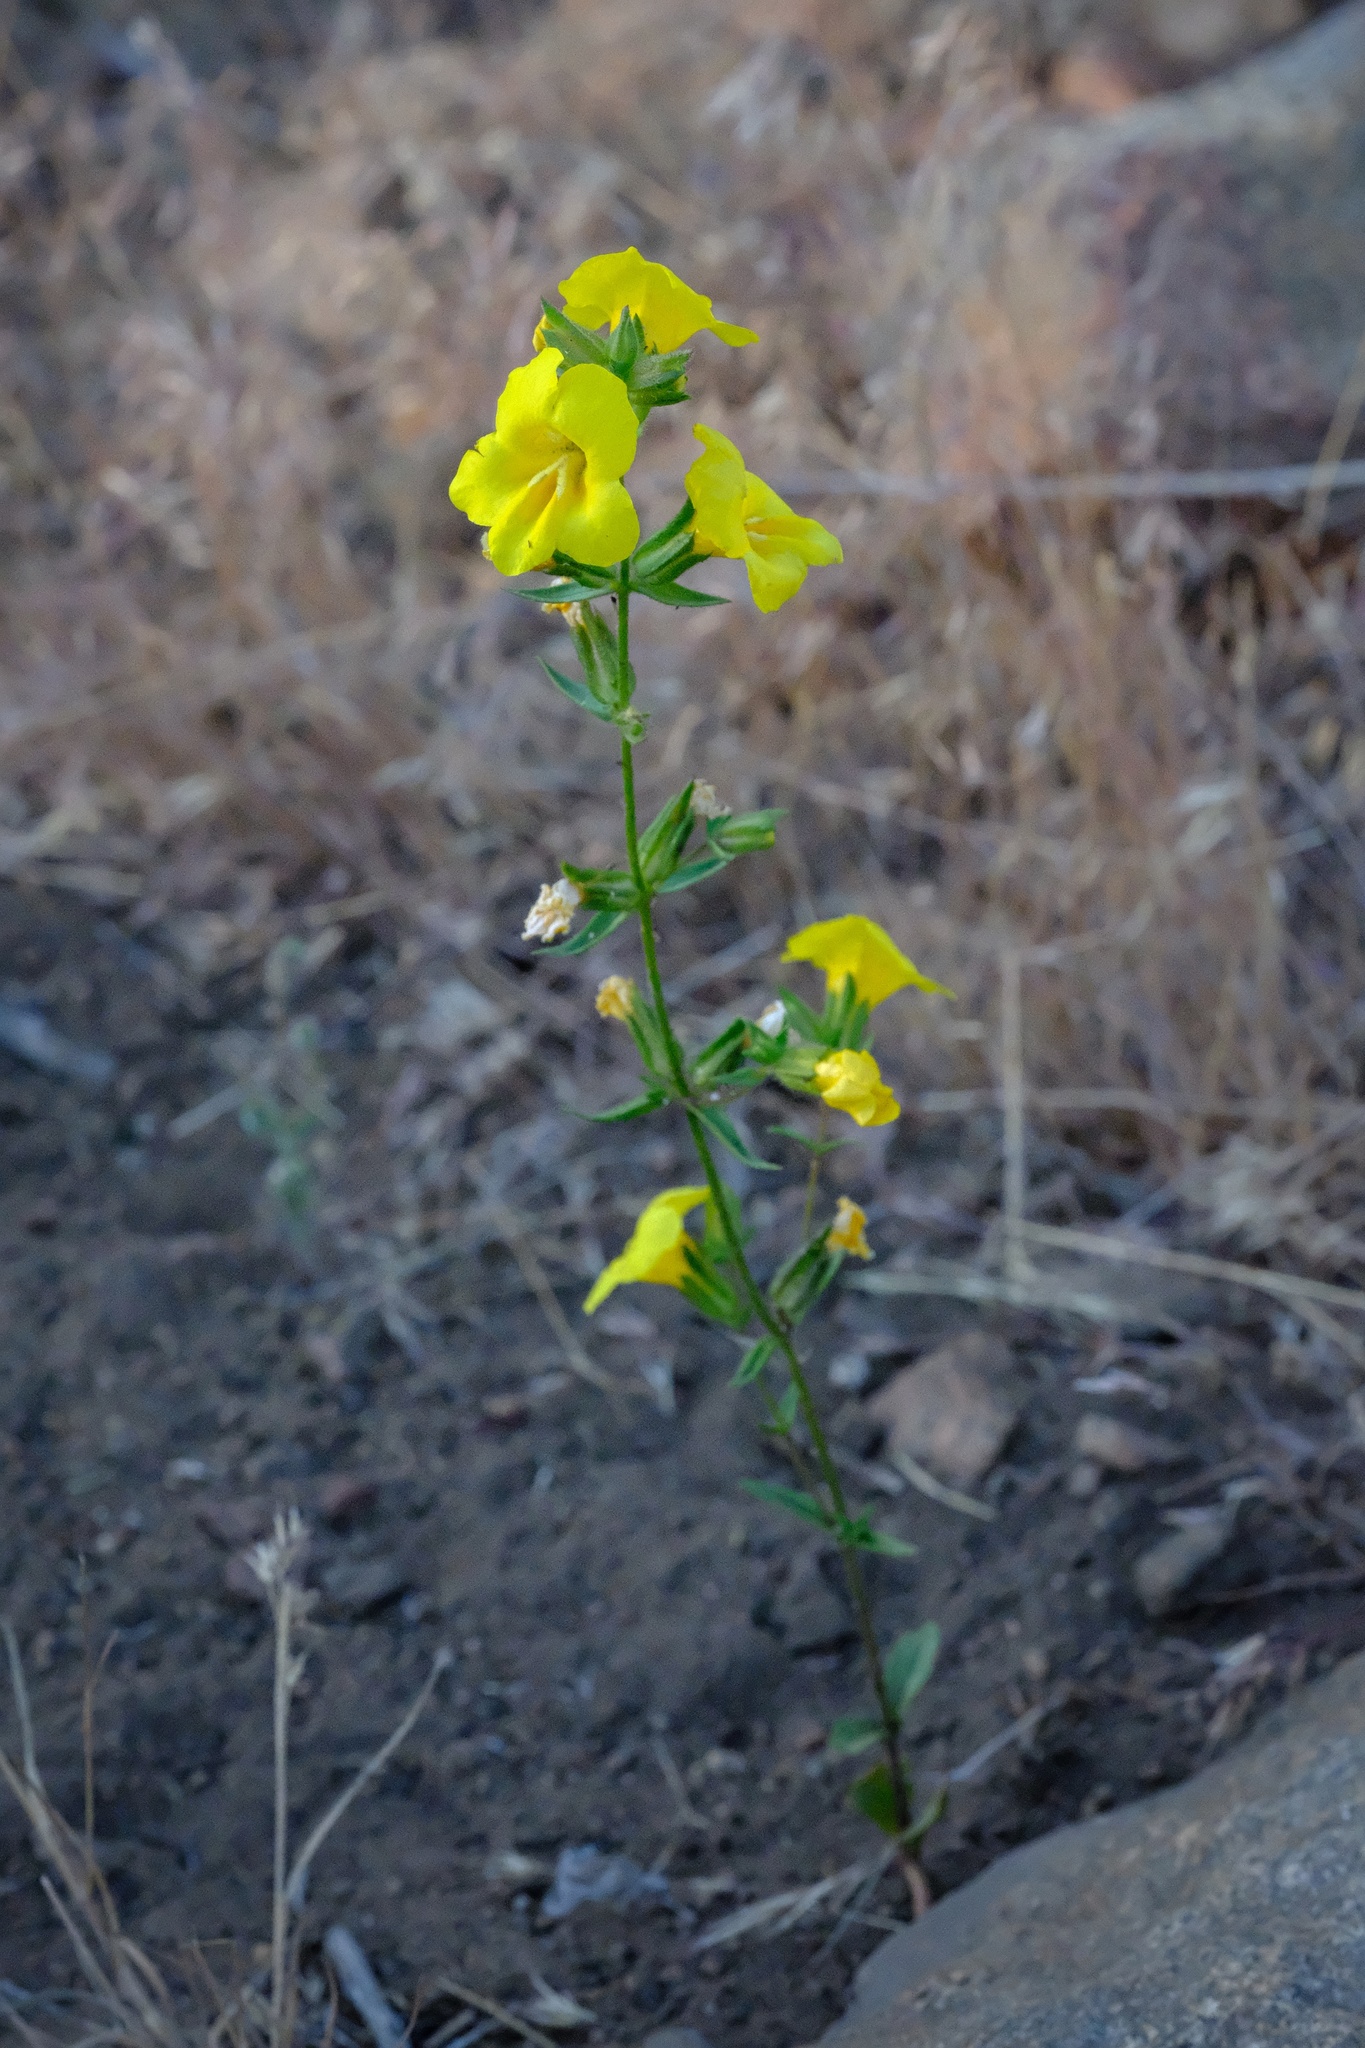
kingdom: Plantae
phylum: Tracheophyta
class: Magnoliopsida
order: Lamiales
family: Phrymaceae
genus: Diplacus
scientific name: Diplacus brevipes
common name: Wide-throat yellow monkey-flower
